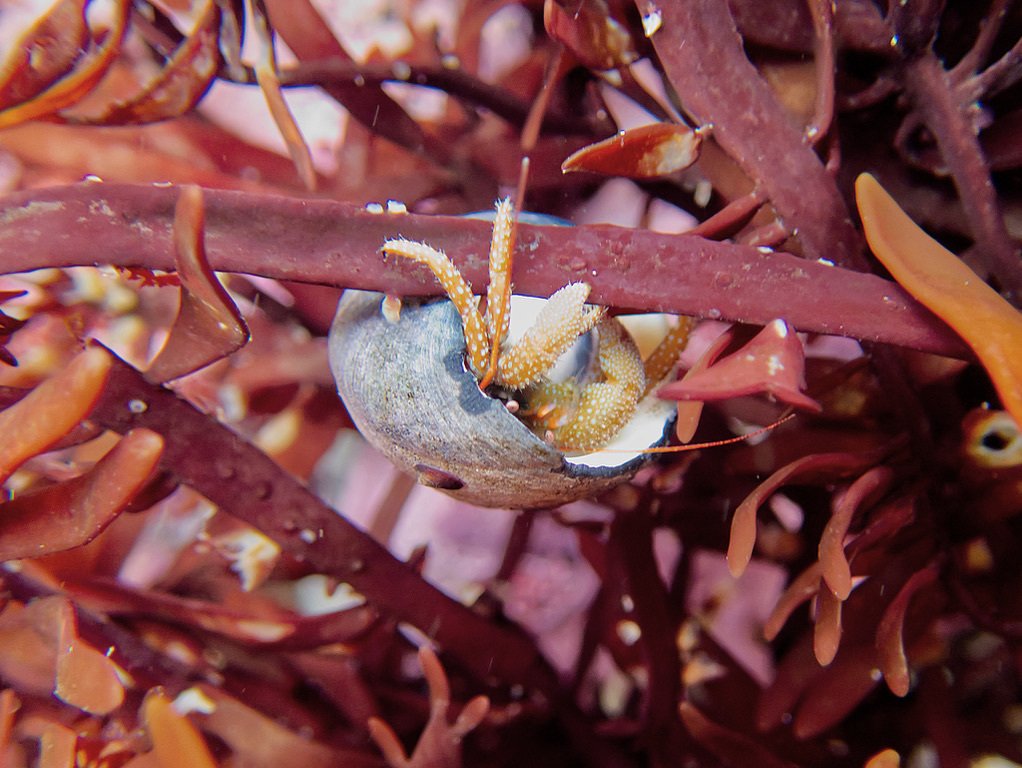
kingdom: Animalia
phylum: Arthropoda
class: Malacostraca
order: Decapoda
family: Paguridae
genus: Pagurus
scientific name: Pagurus granosimanus
